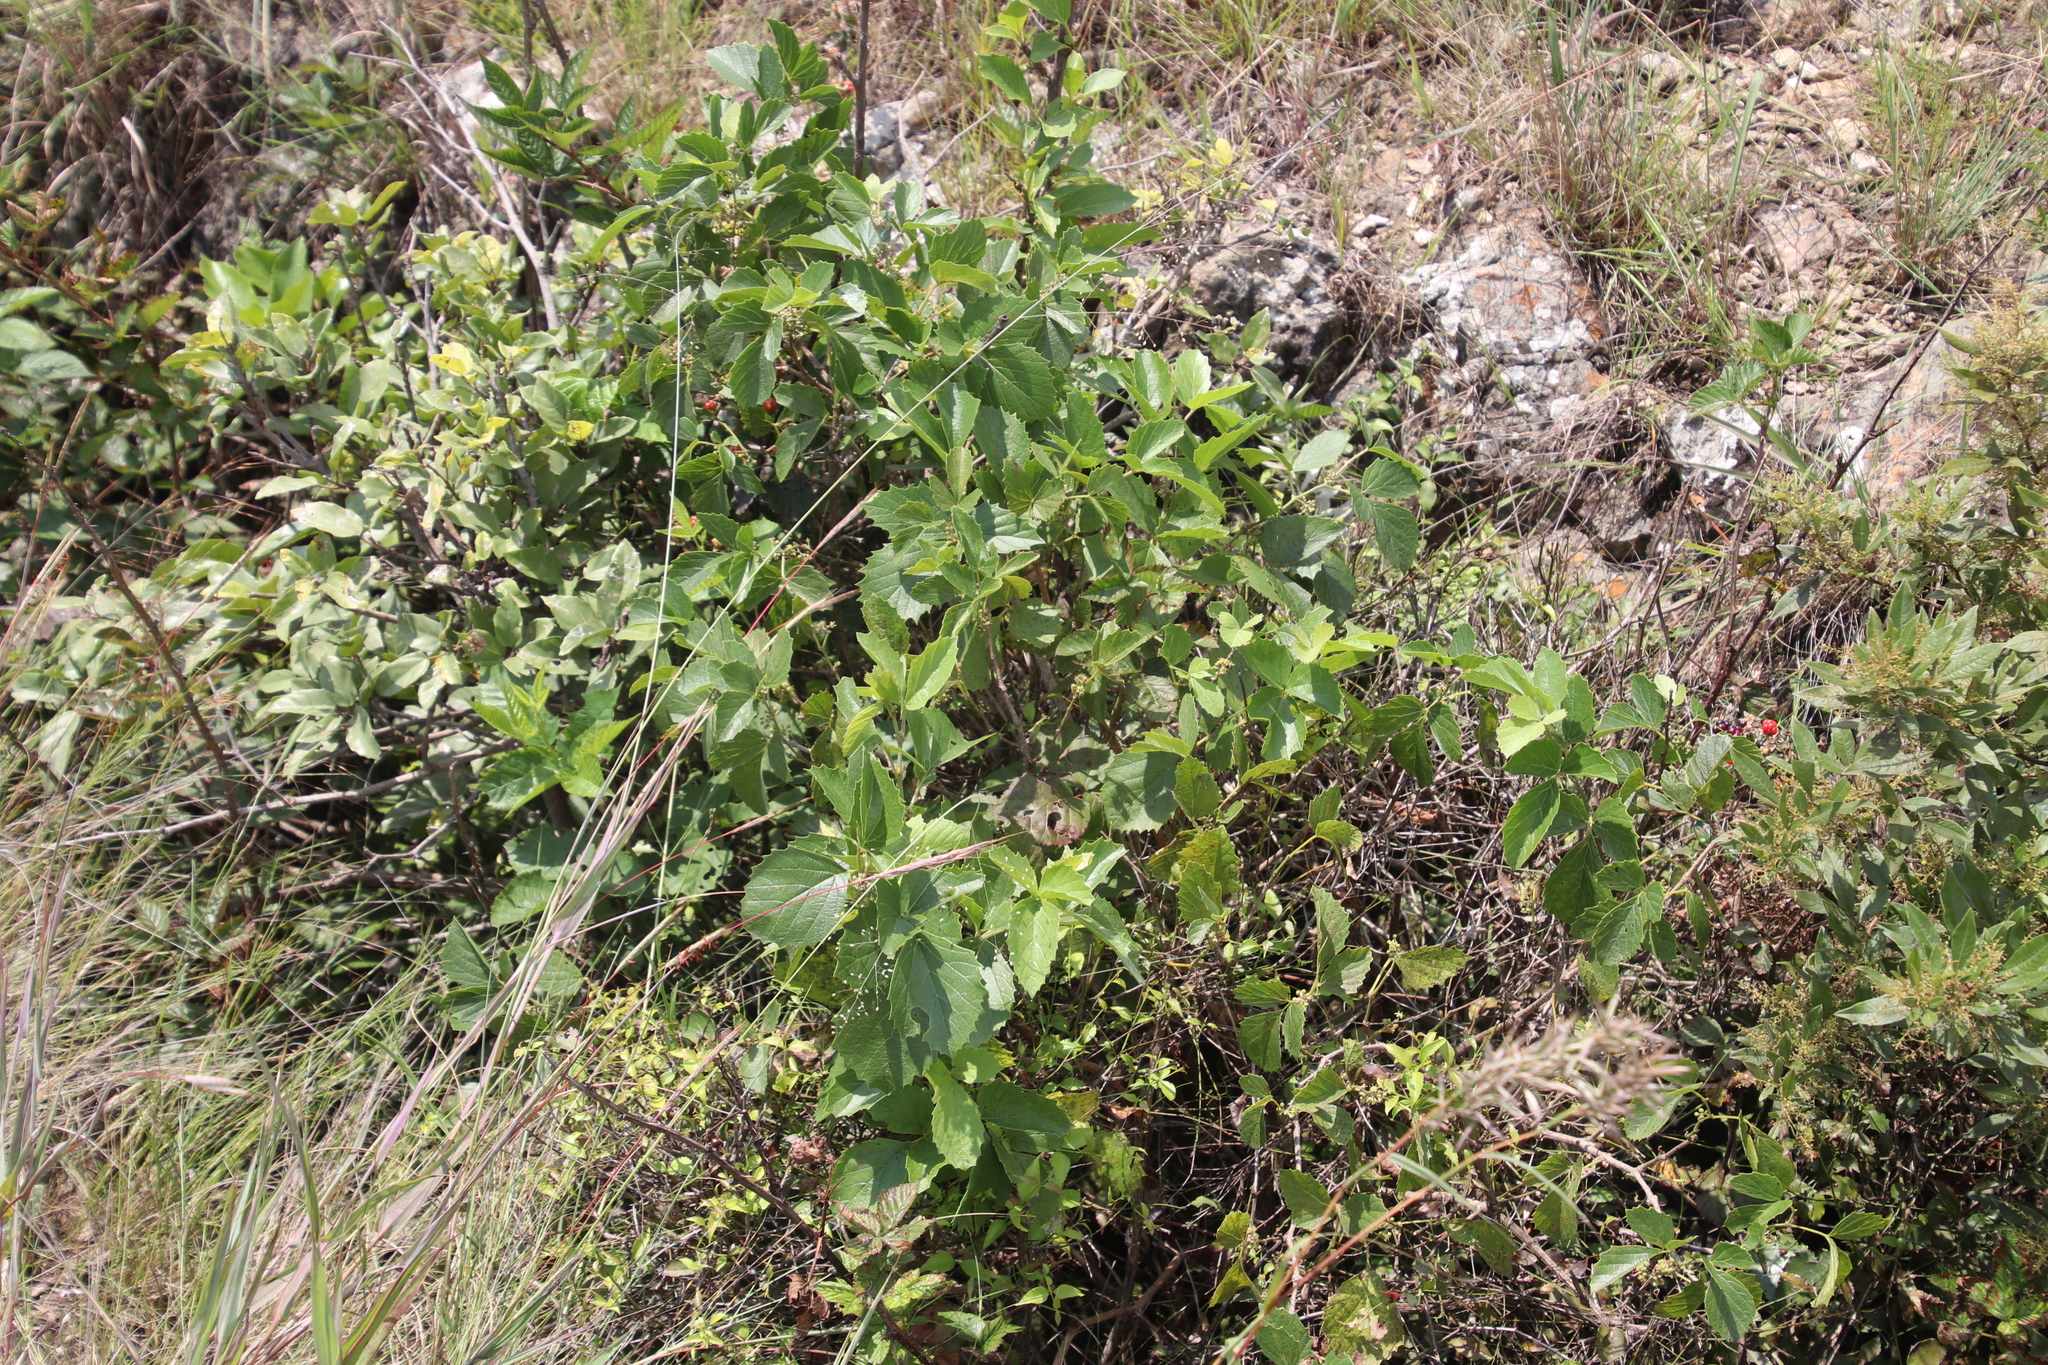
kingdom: Plantae
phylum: Tracheophyta
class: Magnoliopsida
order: Vitales
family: Vitaceae
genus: Rhoicissus
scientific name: Rhoicissus tridentata
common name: Common forest grape
